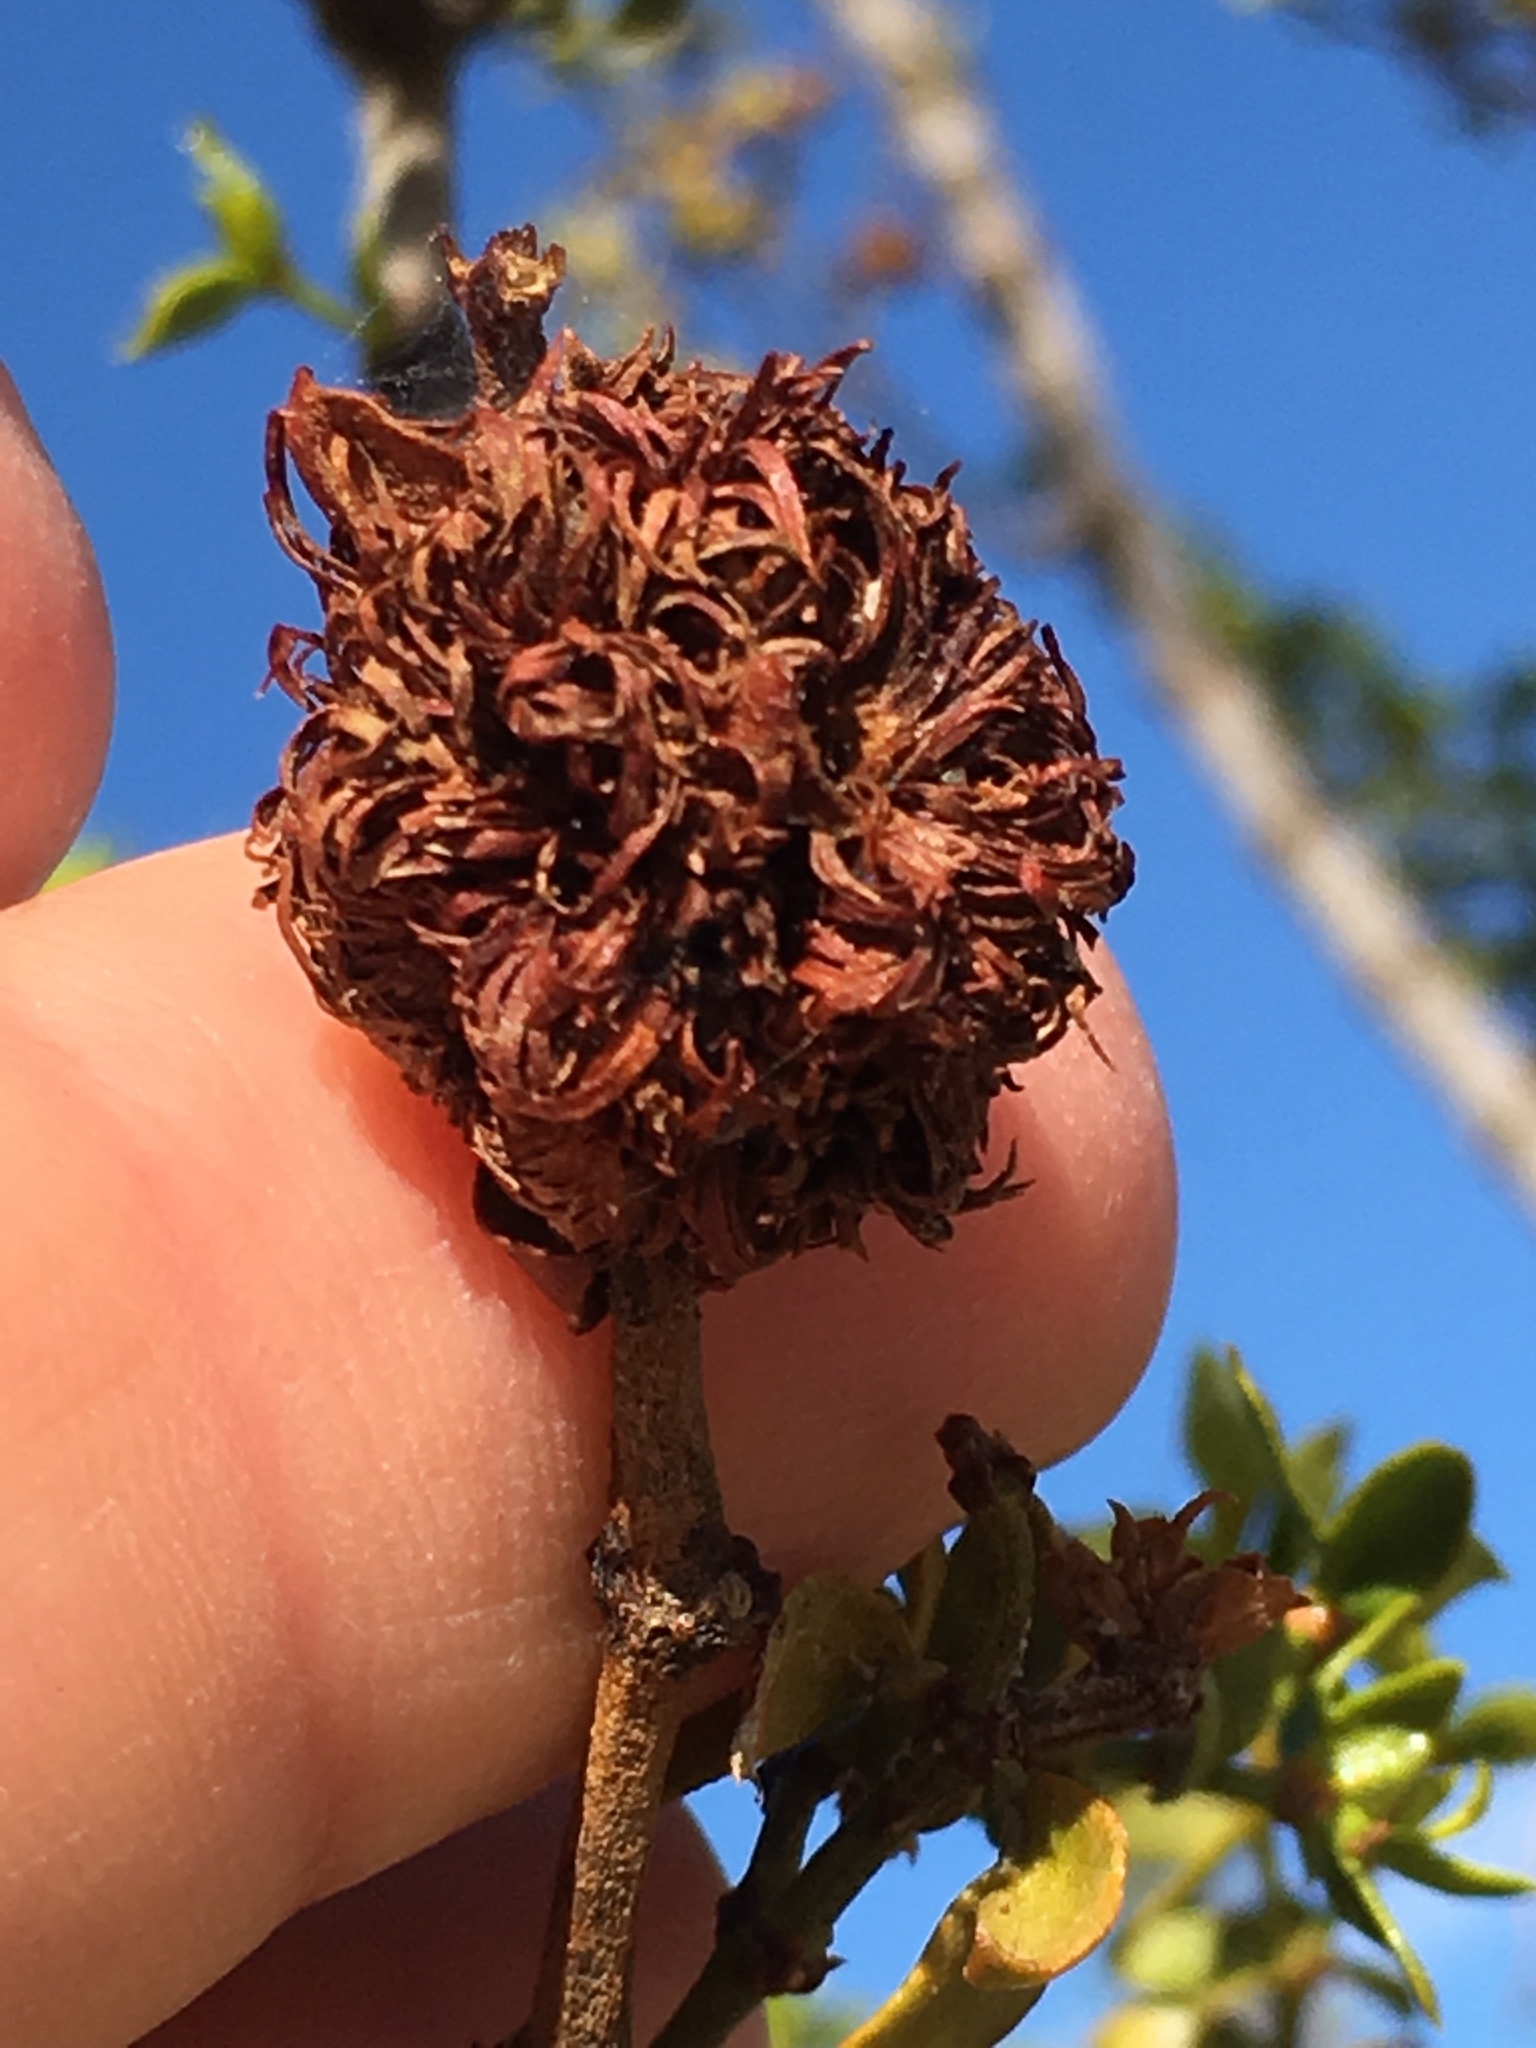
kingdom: Plantae
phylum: Tracheophyta
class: Magnoliopsida
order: Zygophyllales
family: Zygophyllaceae
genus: Larrea
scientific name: Larrea tridentata
